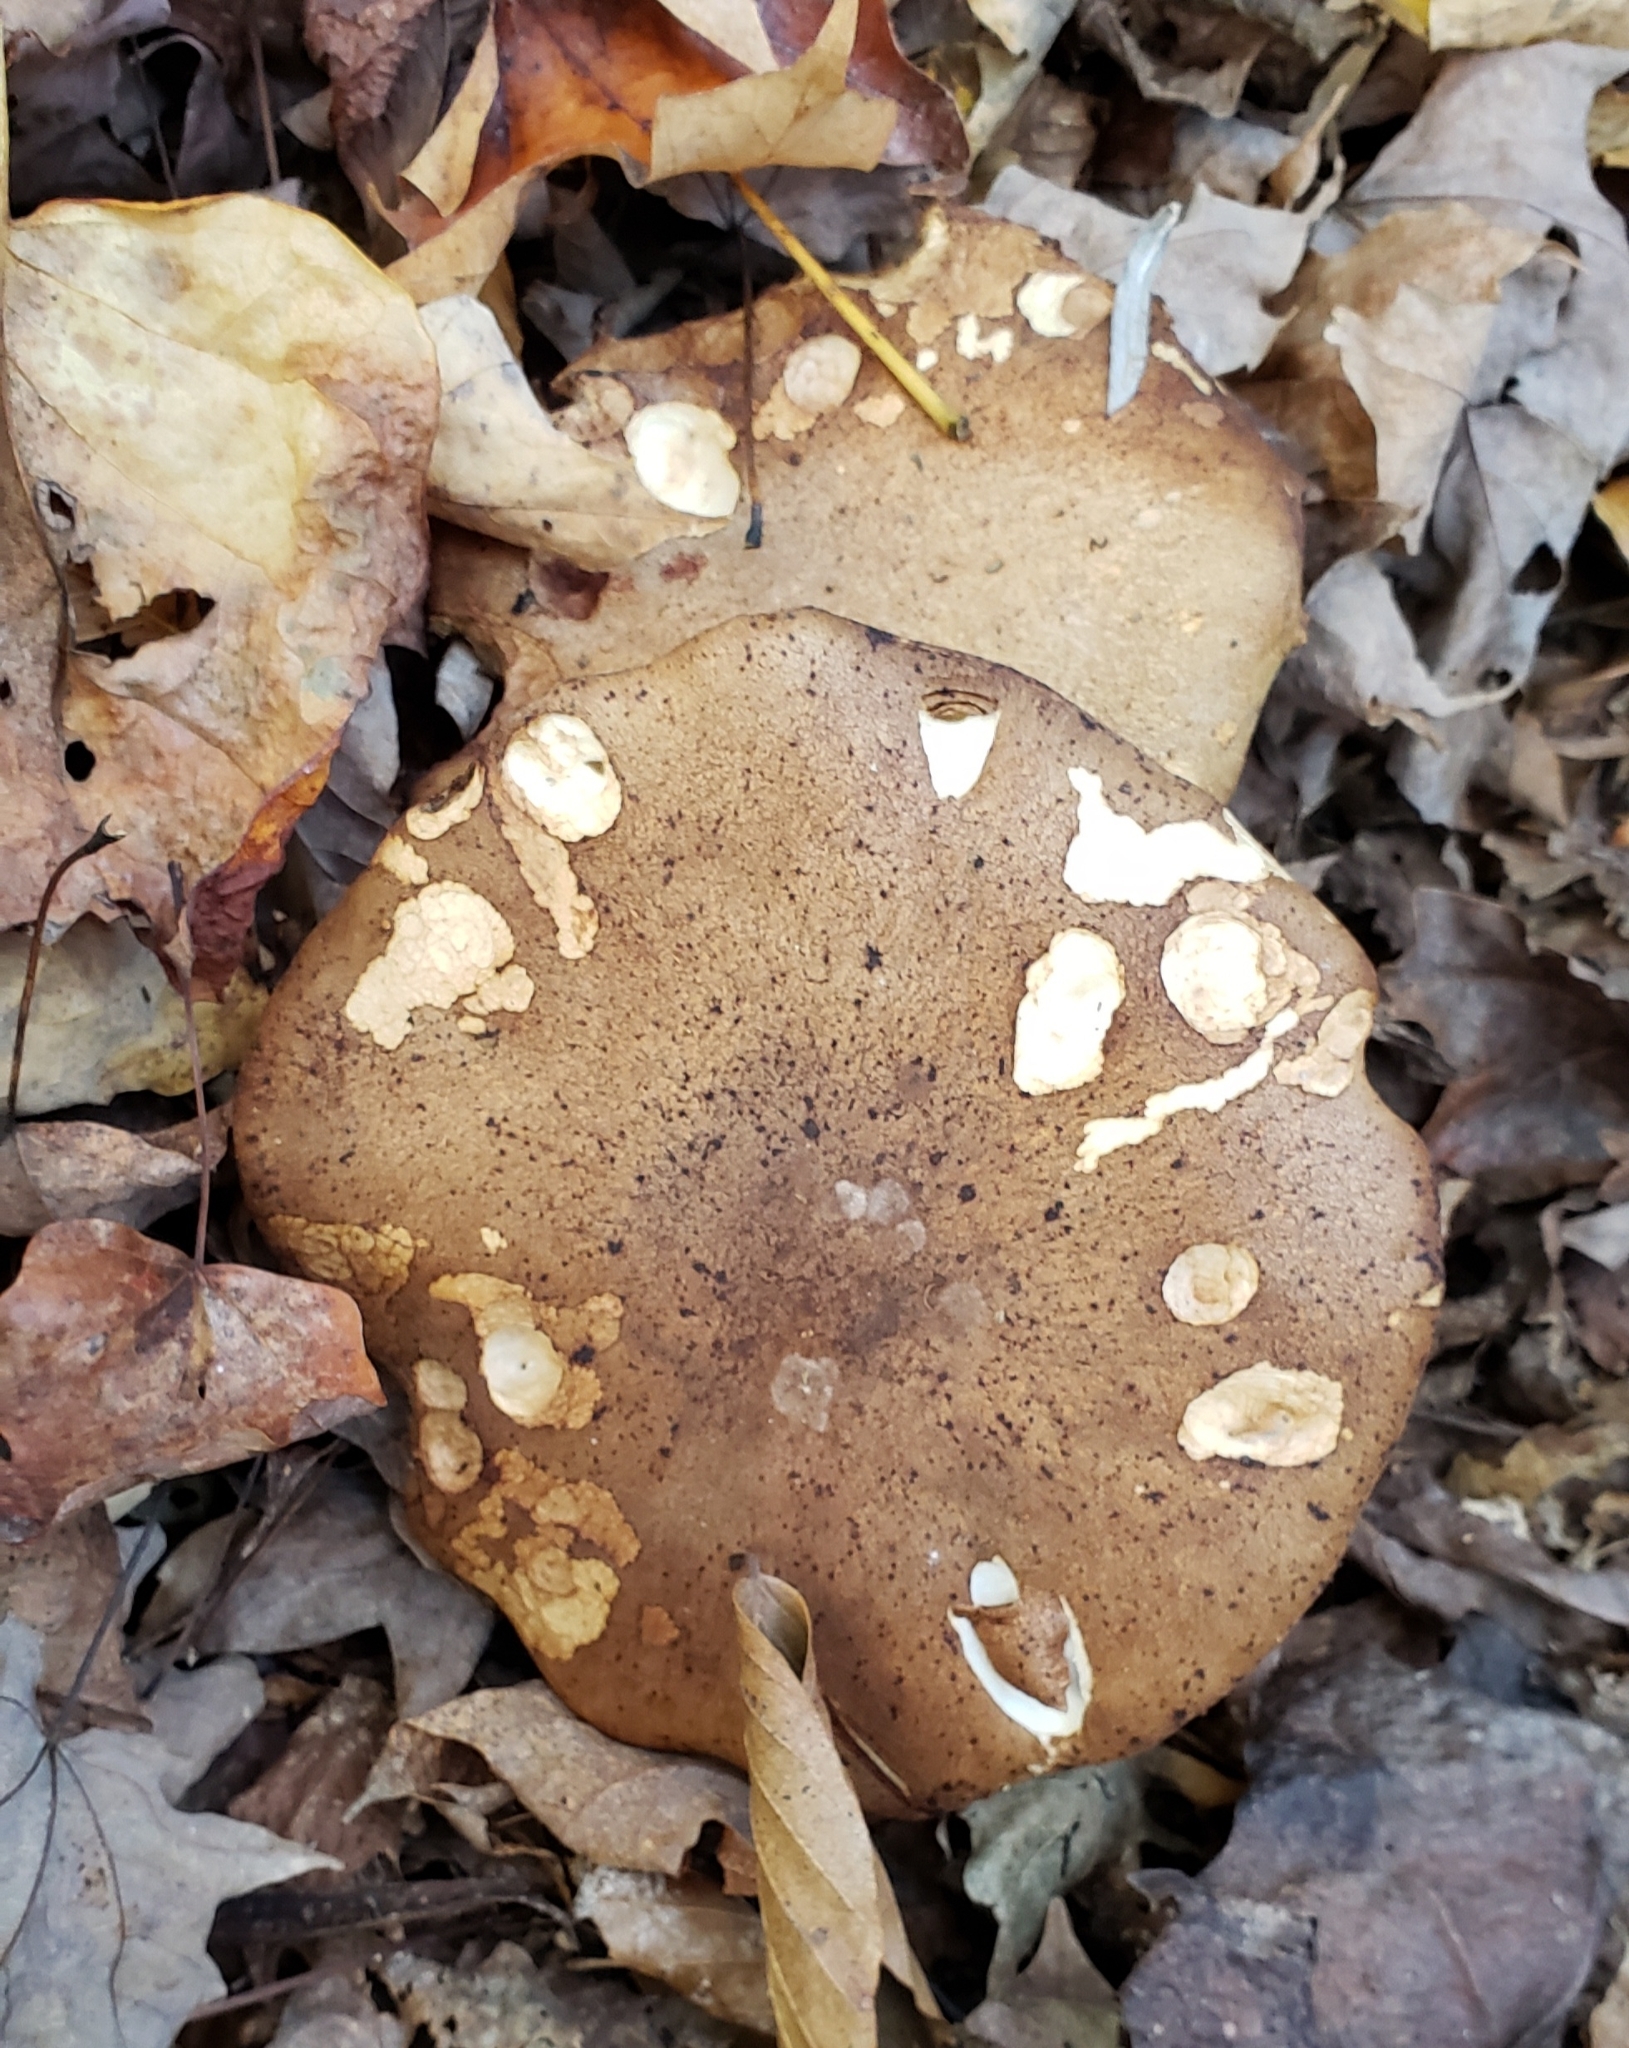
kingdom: Fungi
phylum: Basidiomycota
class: Agaricomycetes
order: Polyporales
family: Polyporaceae
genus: Polyporus
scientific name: Polyporus radicatus
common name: Rooting polypore
